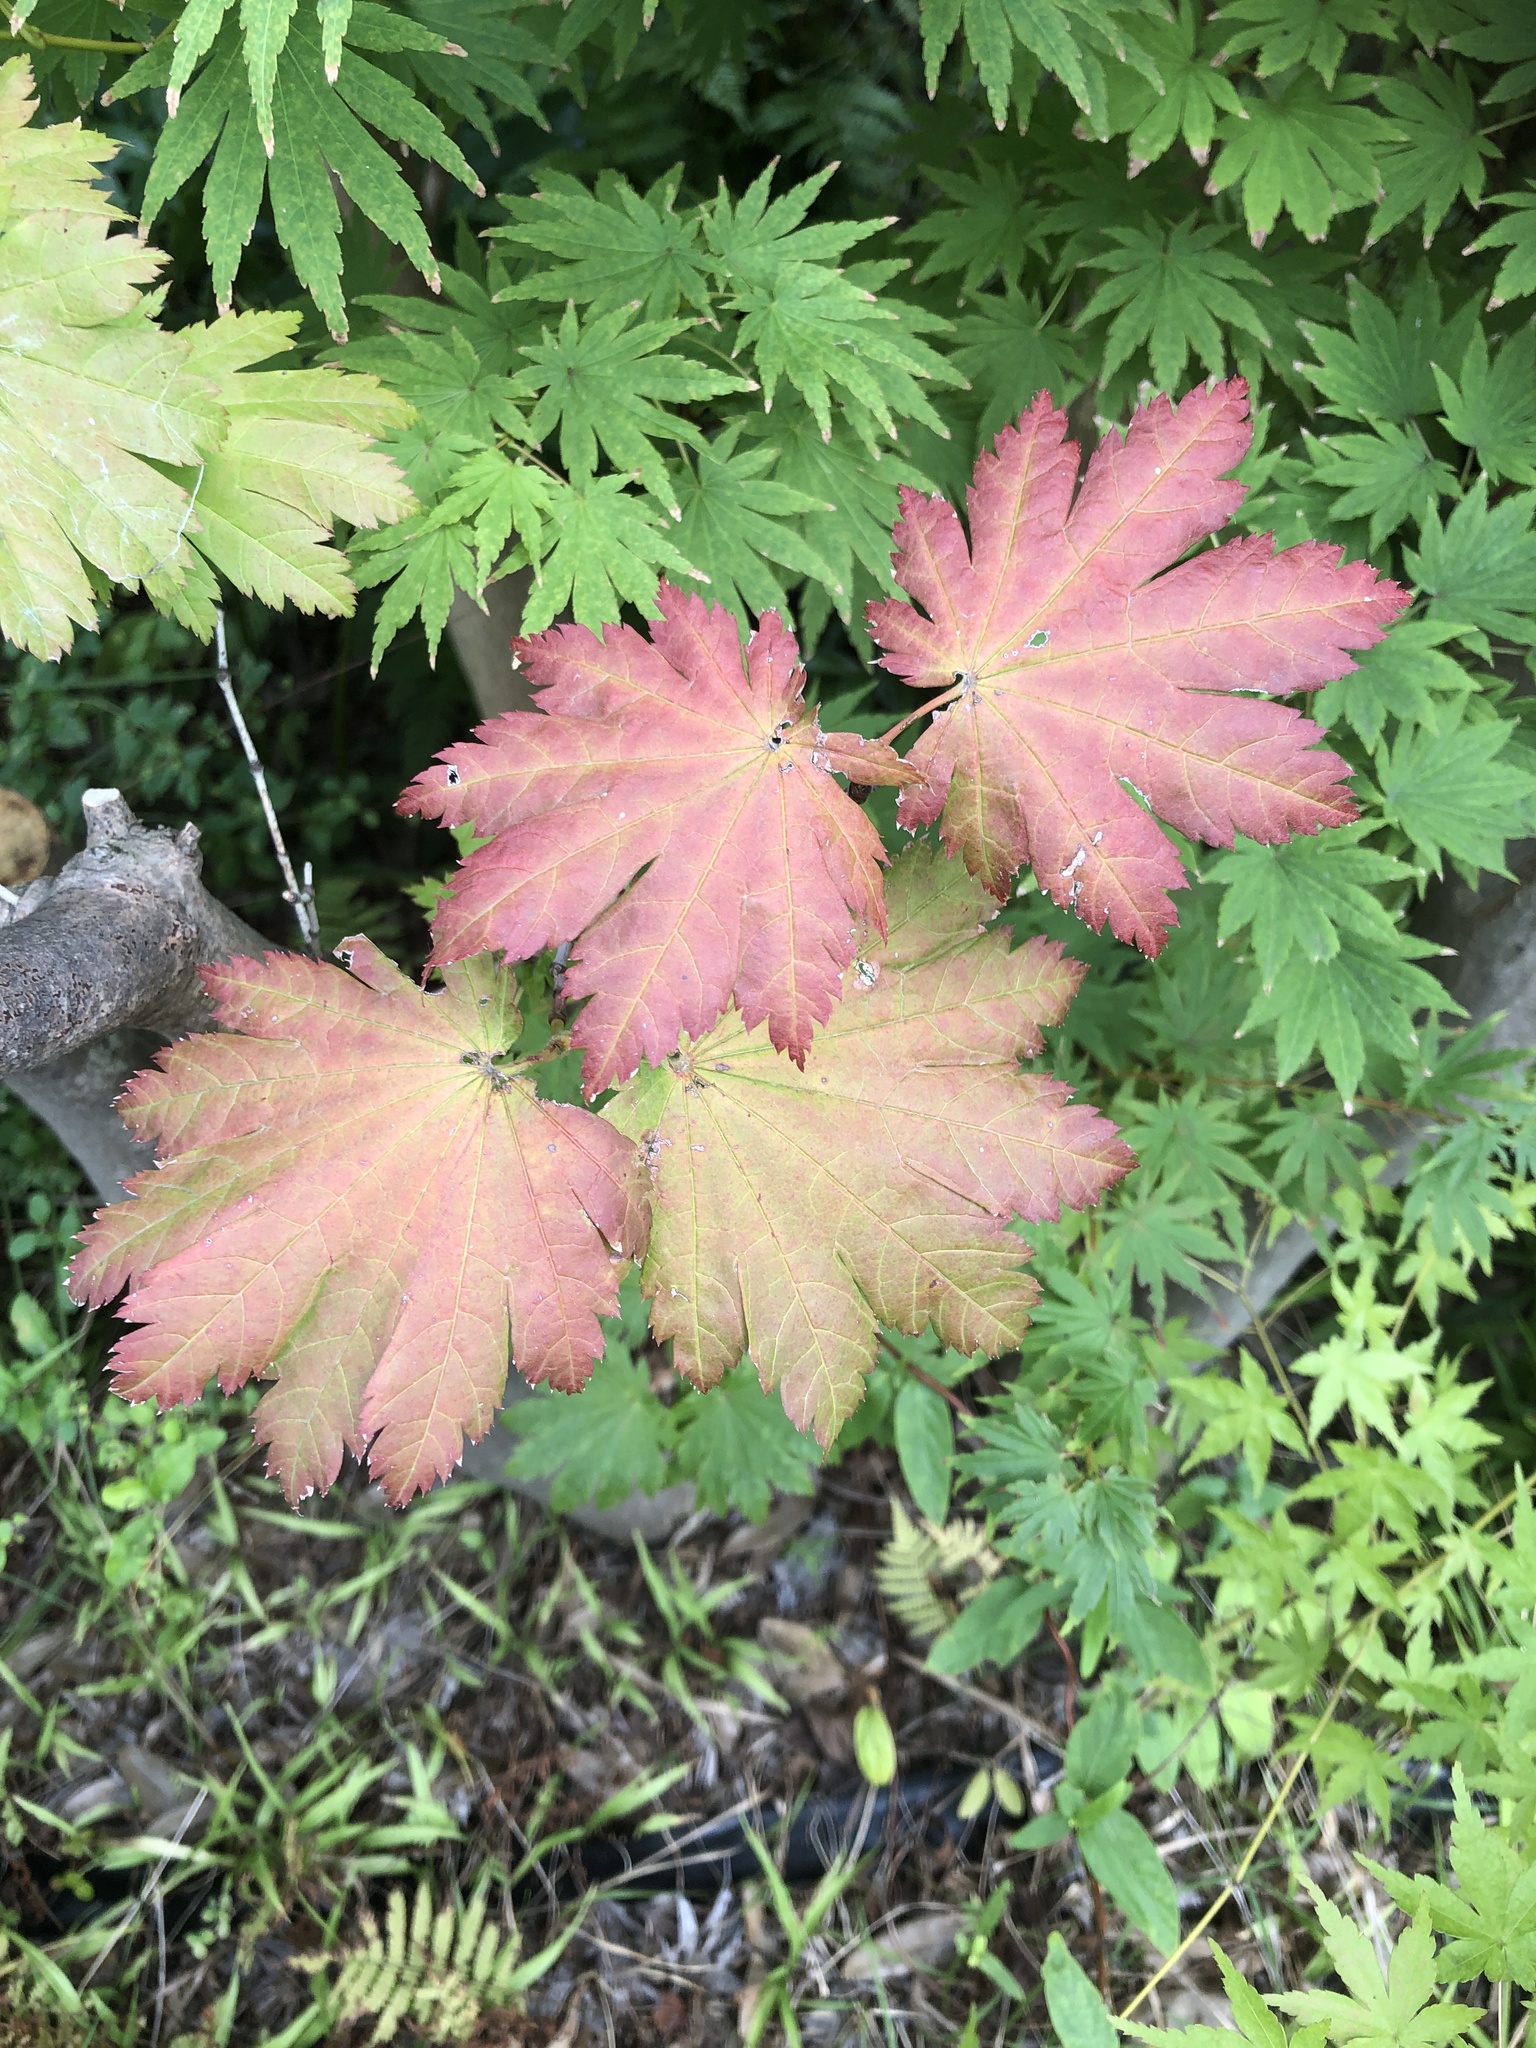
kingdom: Plantae
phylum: Tracheophyta
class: Magnoliopsida
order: Sapindales
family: Sapindaceae
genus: Acer
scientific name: Acer japonicum
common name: Amur maple
